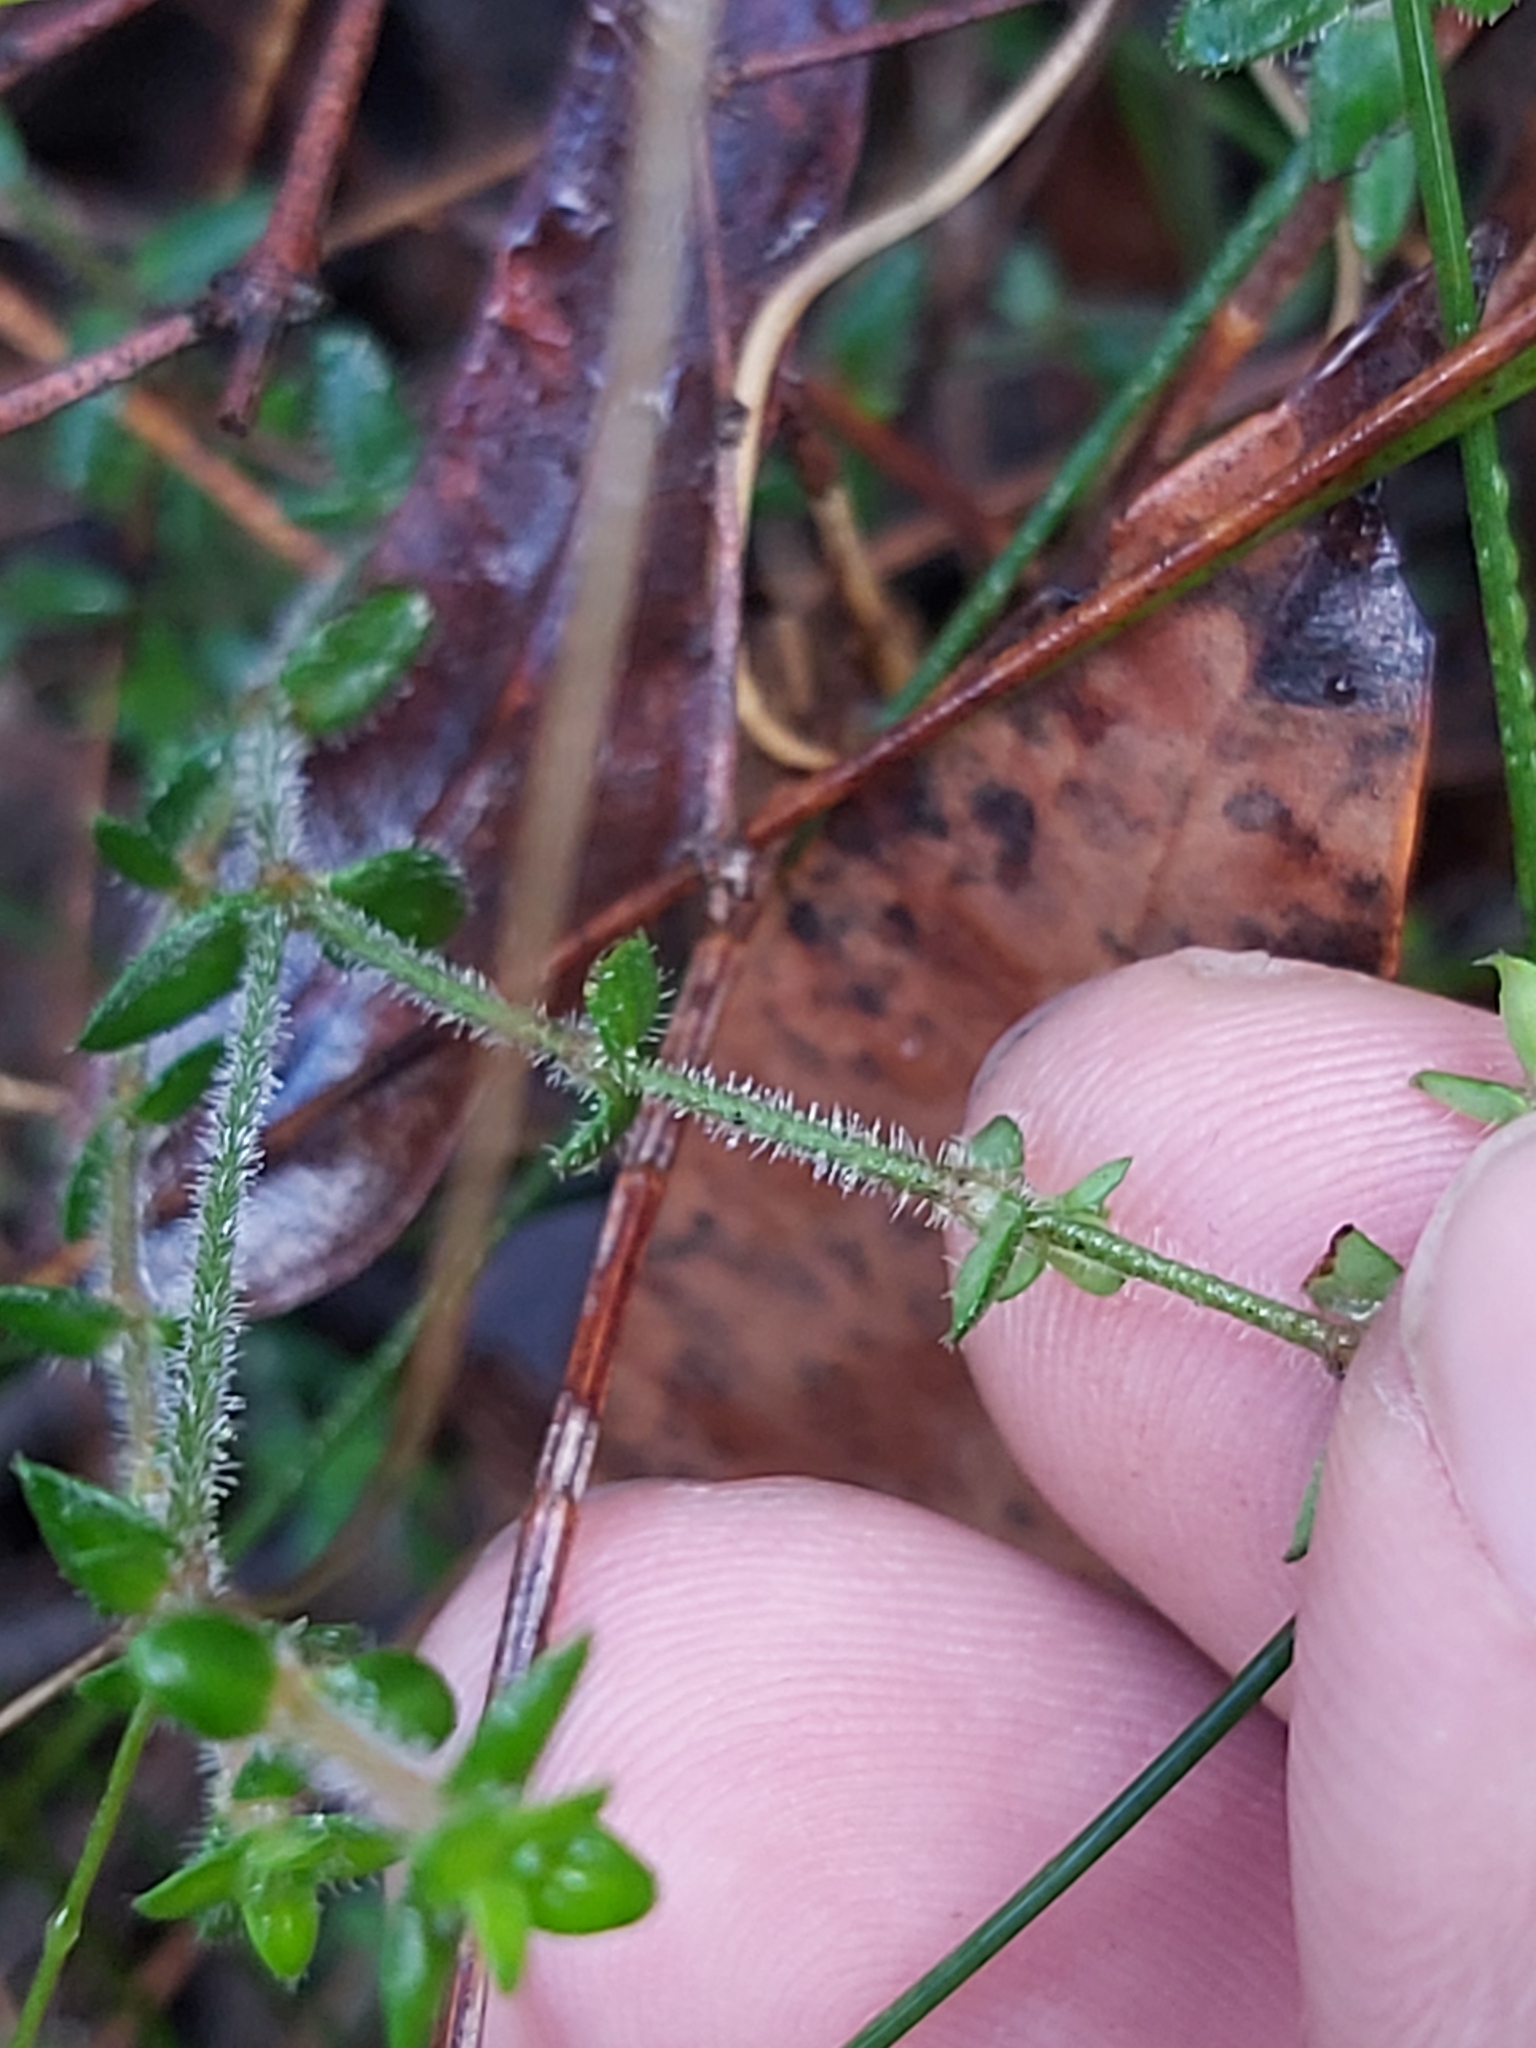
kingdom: Plantae
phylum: Tracheophyta
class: Magnoliopsida
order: Gentianales
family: Loganiaceae
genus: Mitrasacme
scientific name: Mitrasacme polymorpha
